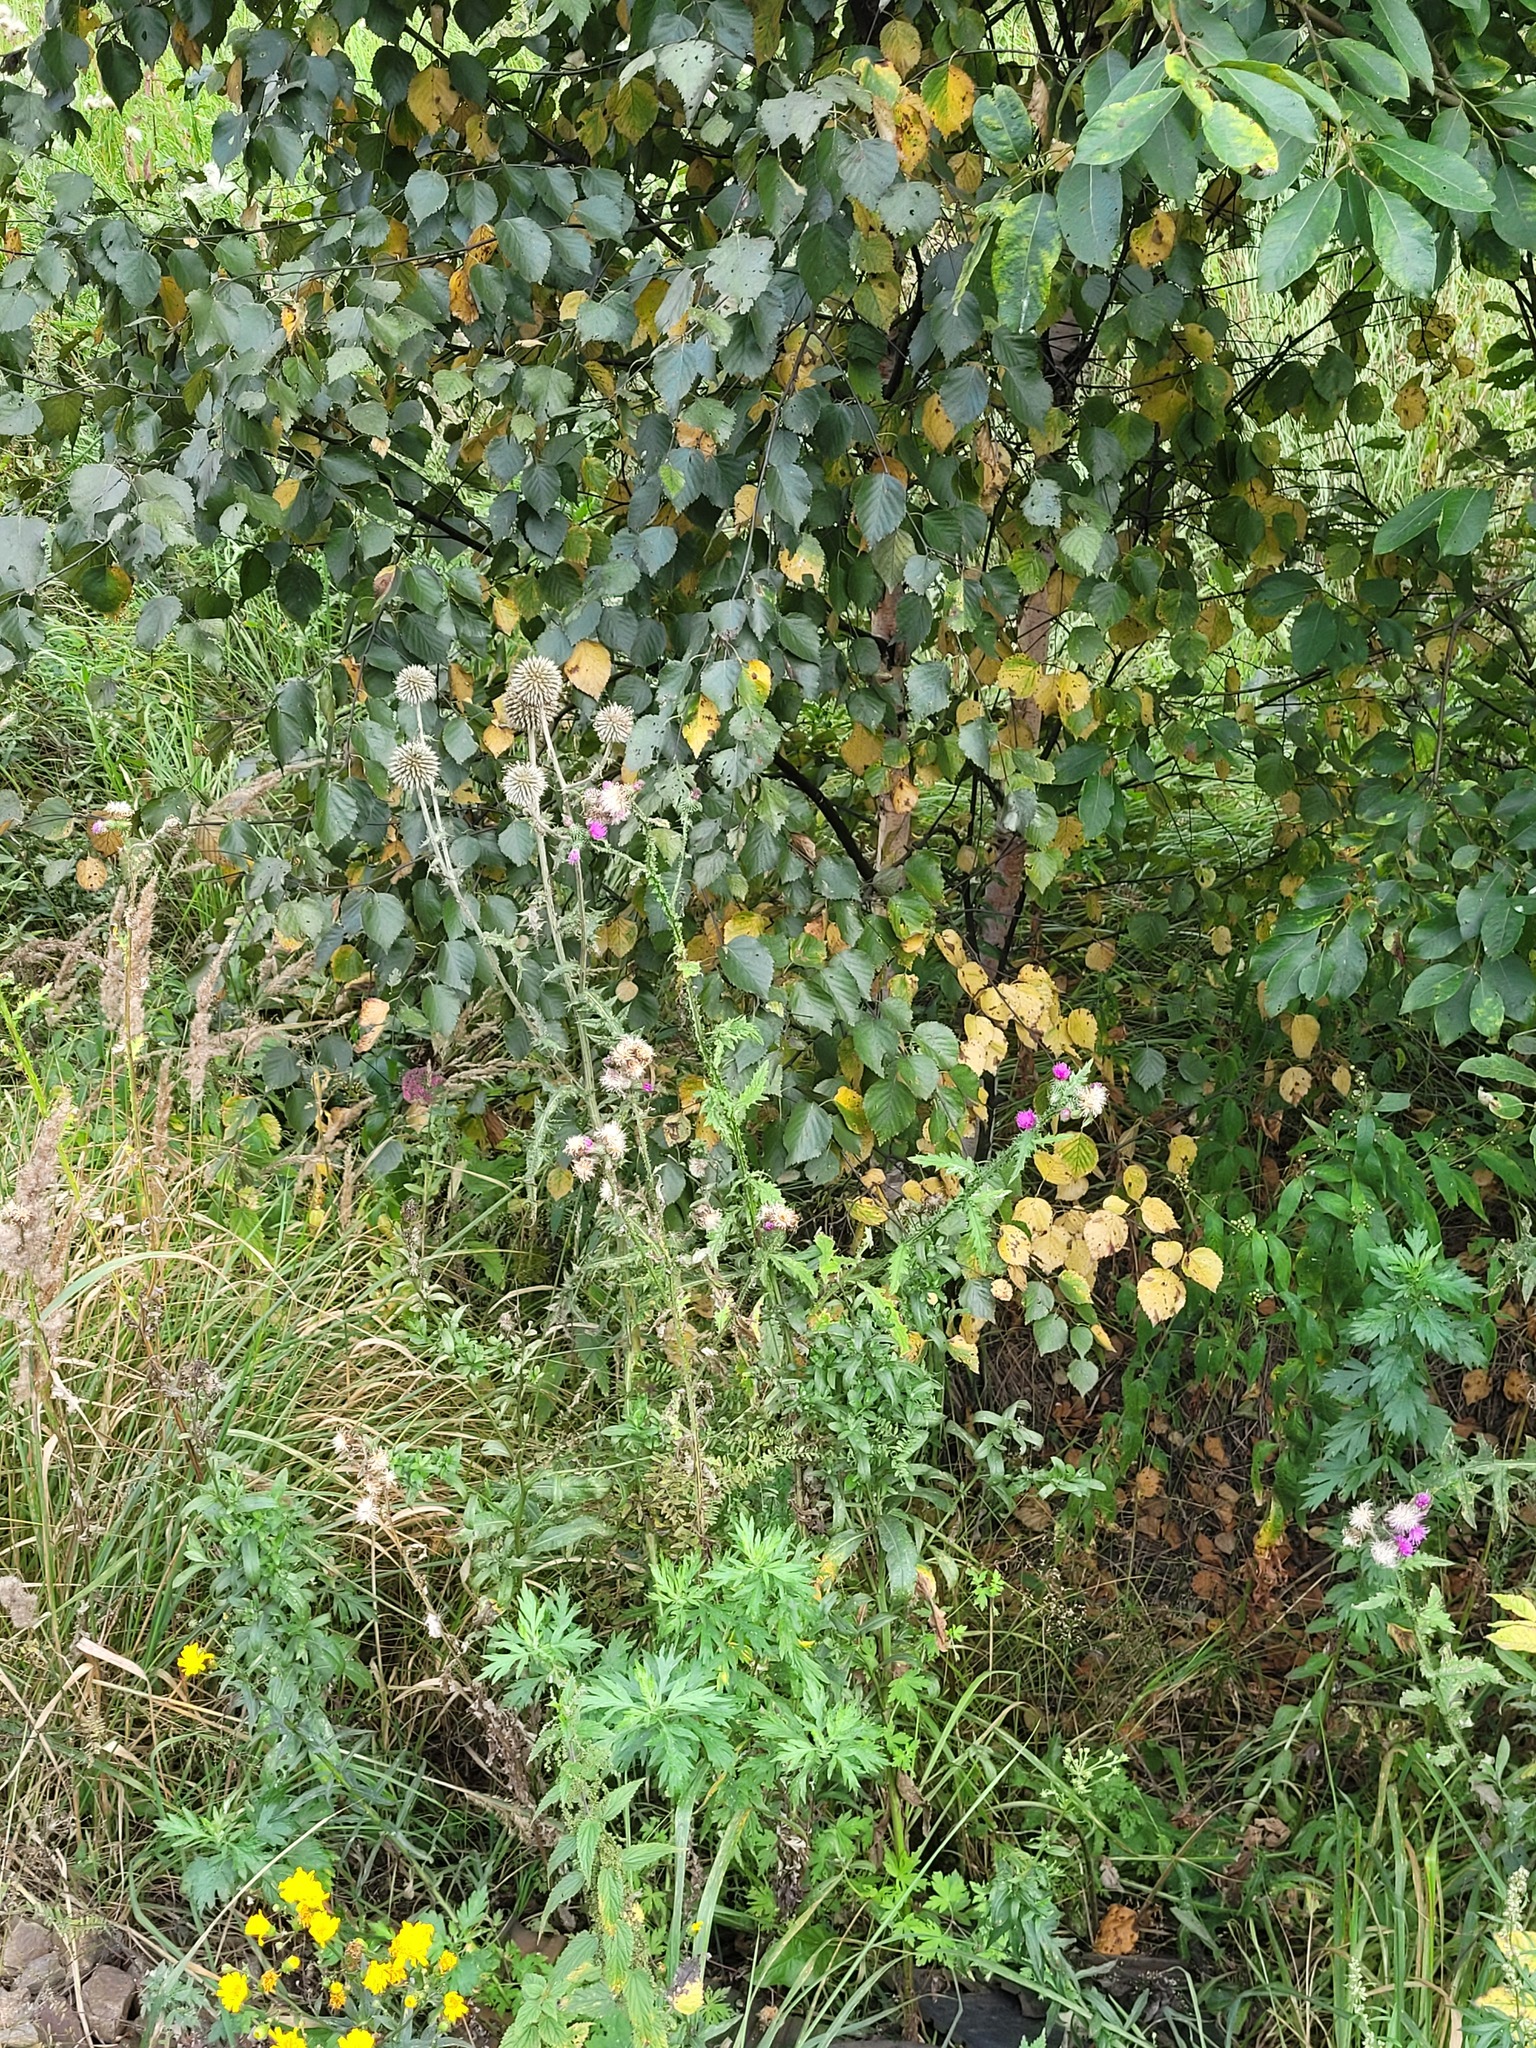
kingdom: Plantae
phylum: Tracheophyta
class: Magnoliopsida
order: Asterales
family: Asteraceae
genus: Carduus
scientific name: Carduus crispus
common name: Welted thistle
